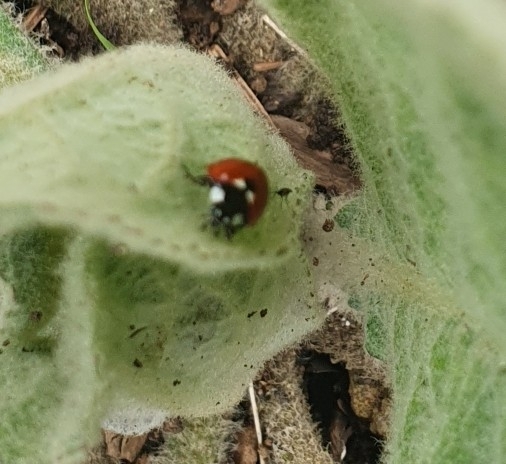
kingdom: Animalia
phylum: Arthropoda
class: Insecta
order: Coleoptera
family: Coccinellidae
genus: Coccinella
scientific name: Coccinella septempunctata
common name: Sevenspotted lady beetle
